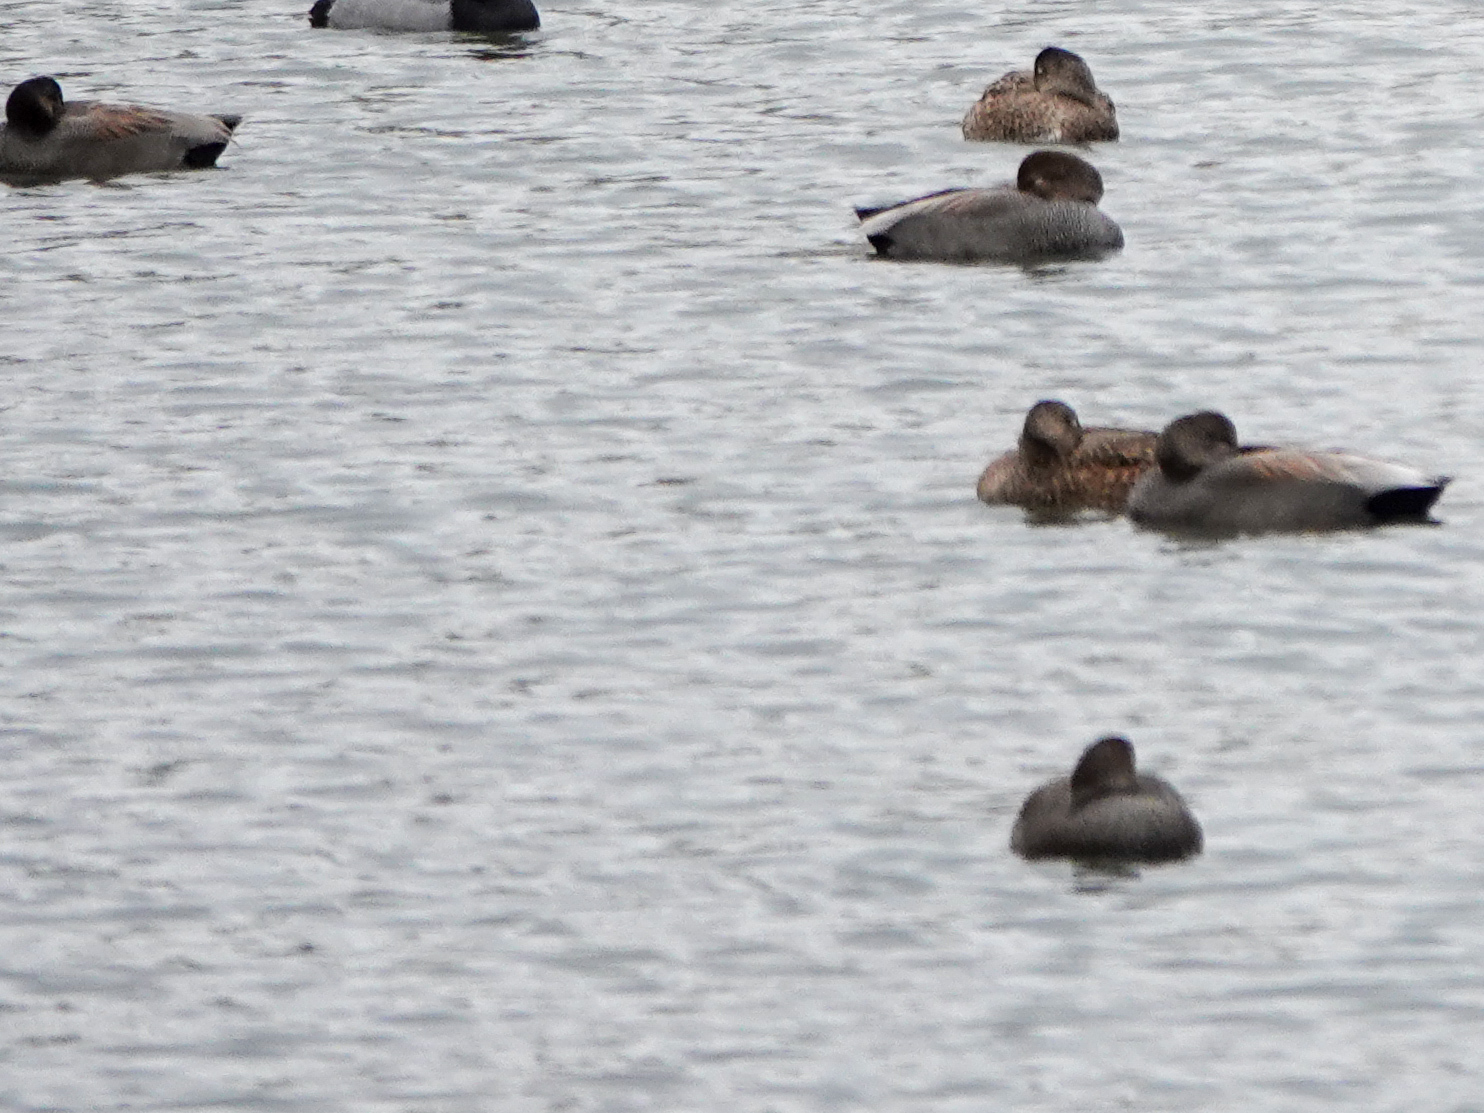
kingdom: Animalia
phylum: Chordata
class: Aves
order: Anseriformes
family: Anatidae
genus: Mareca
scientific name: Mareca strepera
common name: Gadwall
